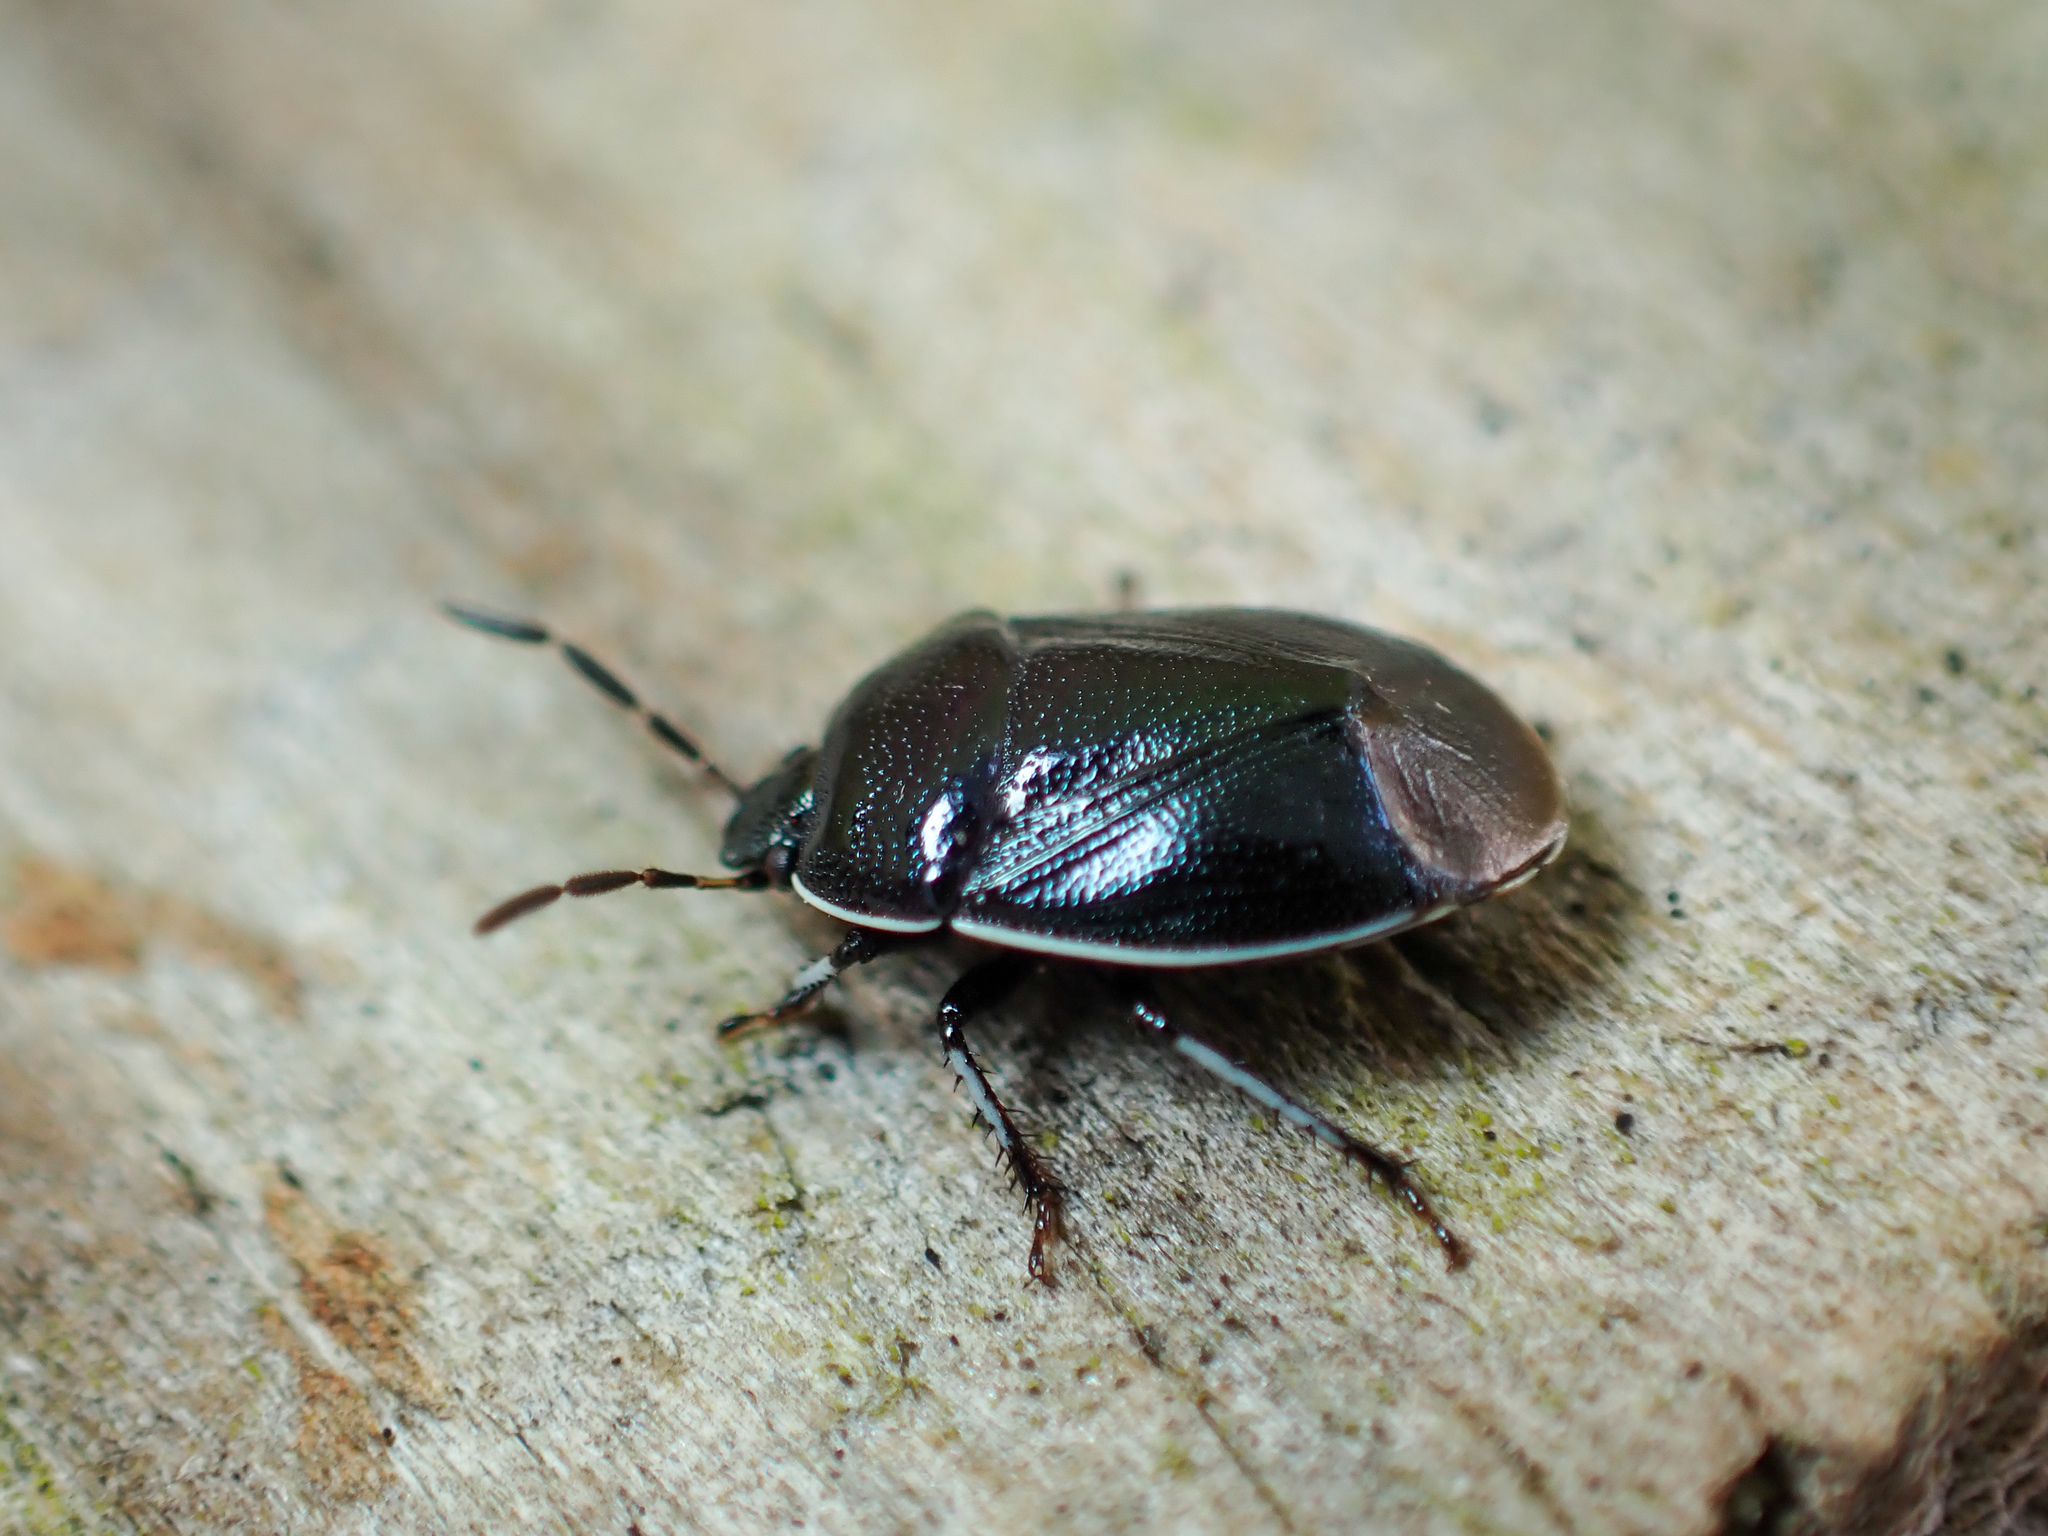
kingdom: Animalia
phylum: Arthropoda
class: Insecta
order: Hemiptera
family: Cydnidae
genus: Sehirus
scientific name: Sehirus cinctus
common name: White-margined burrower bug
